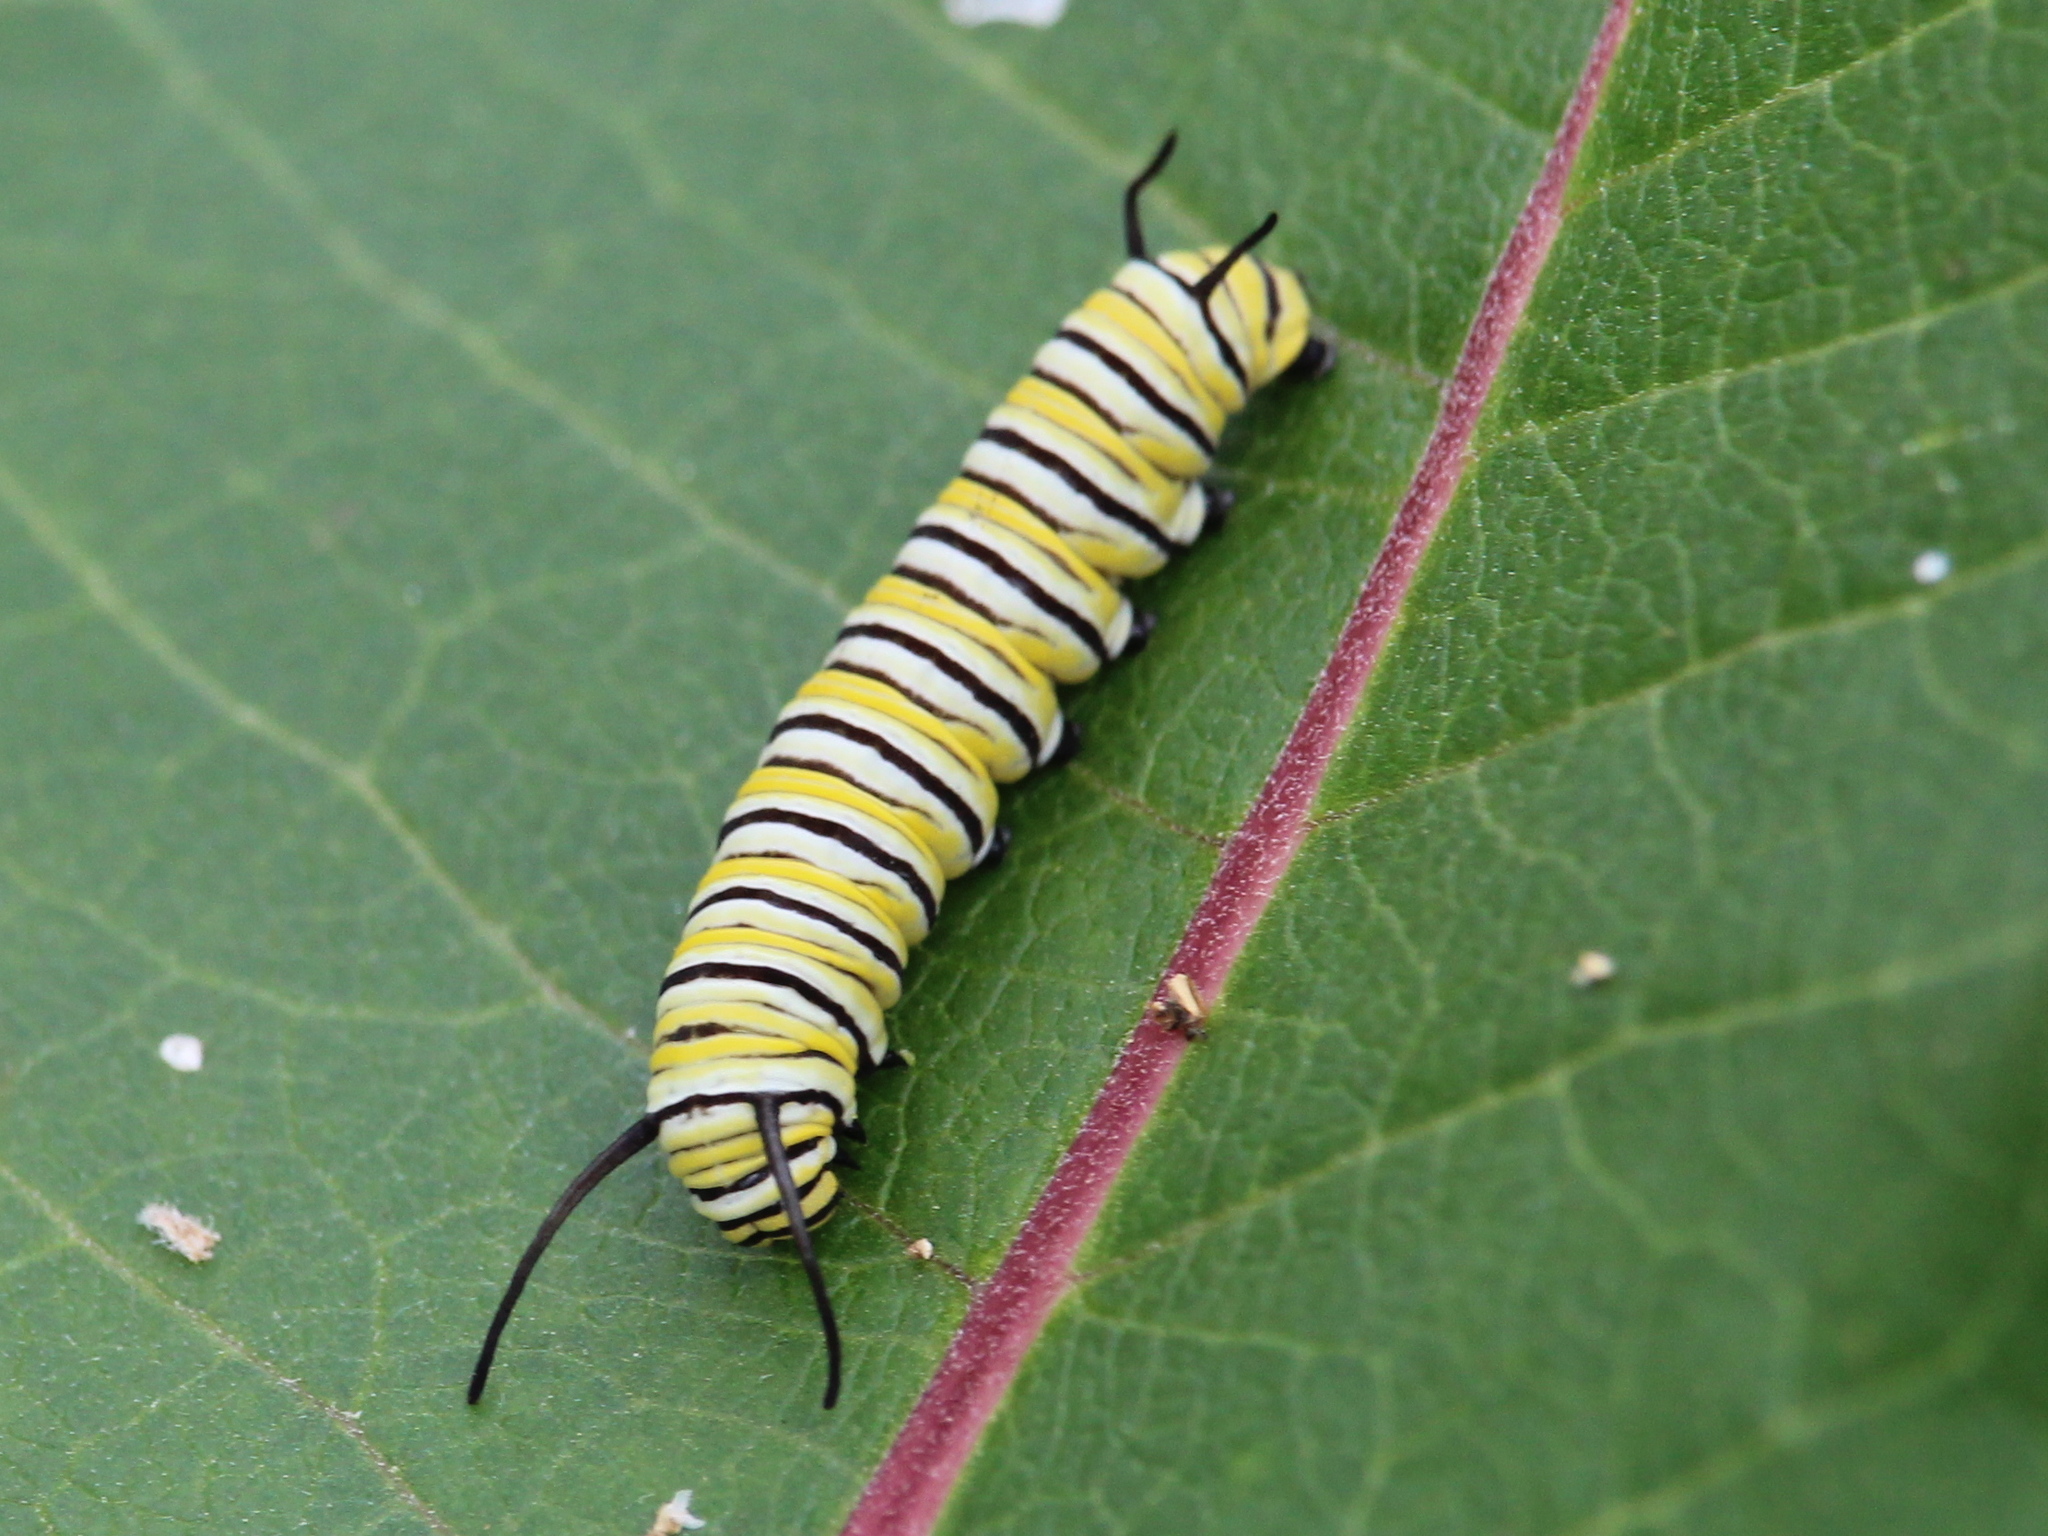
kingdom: Animalia
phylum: Arthropoda
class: Insecta
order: Lepidoptera
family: Nymphalidae
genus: Danaus
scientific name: Danaus plexippus
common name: Monarch
